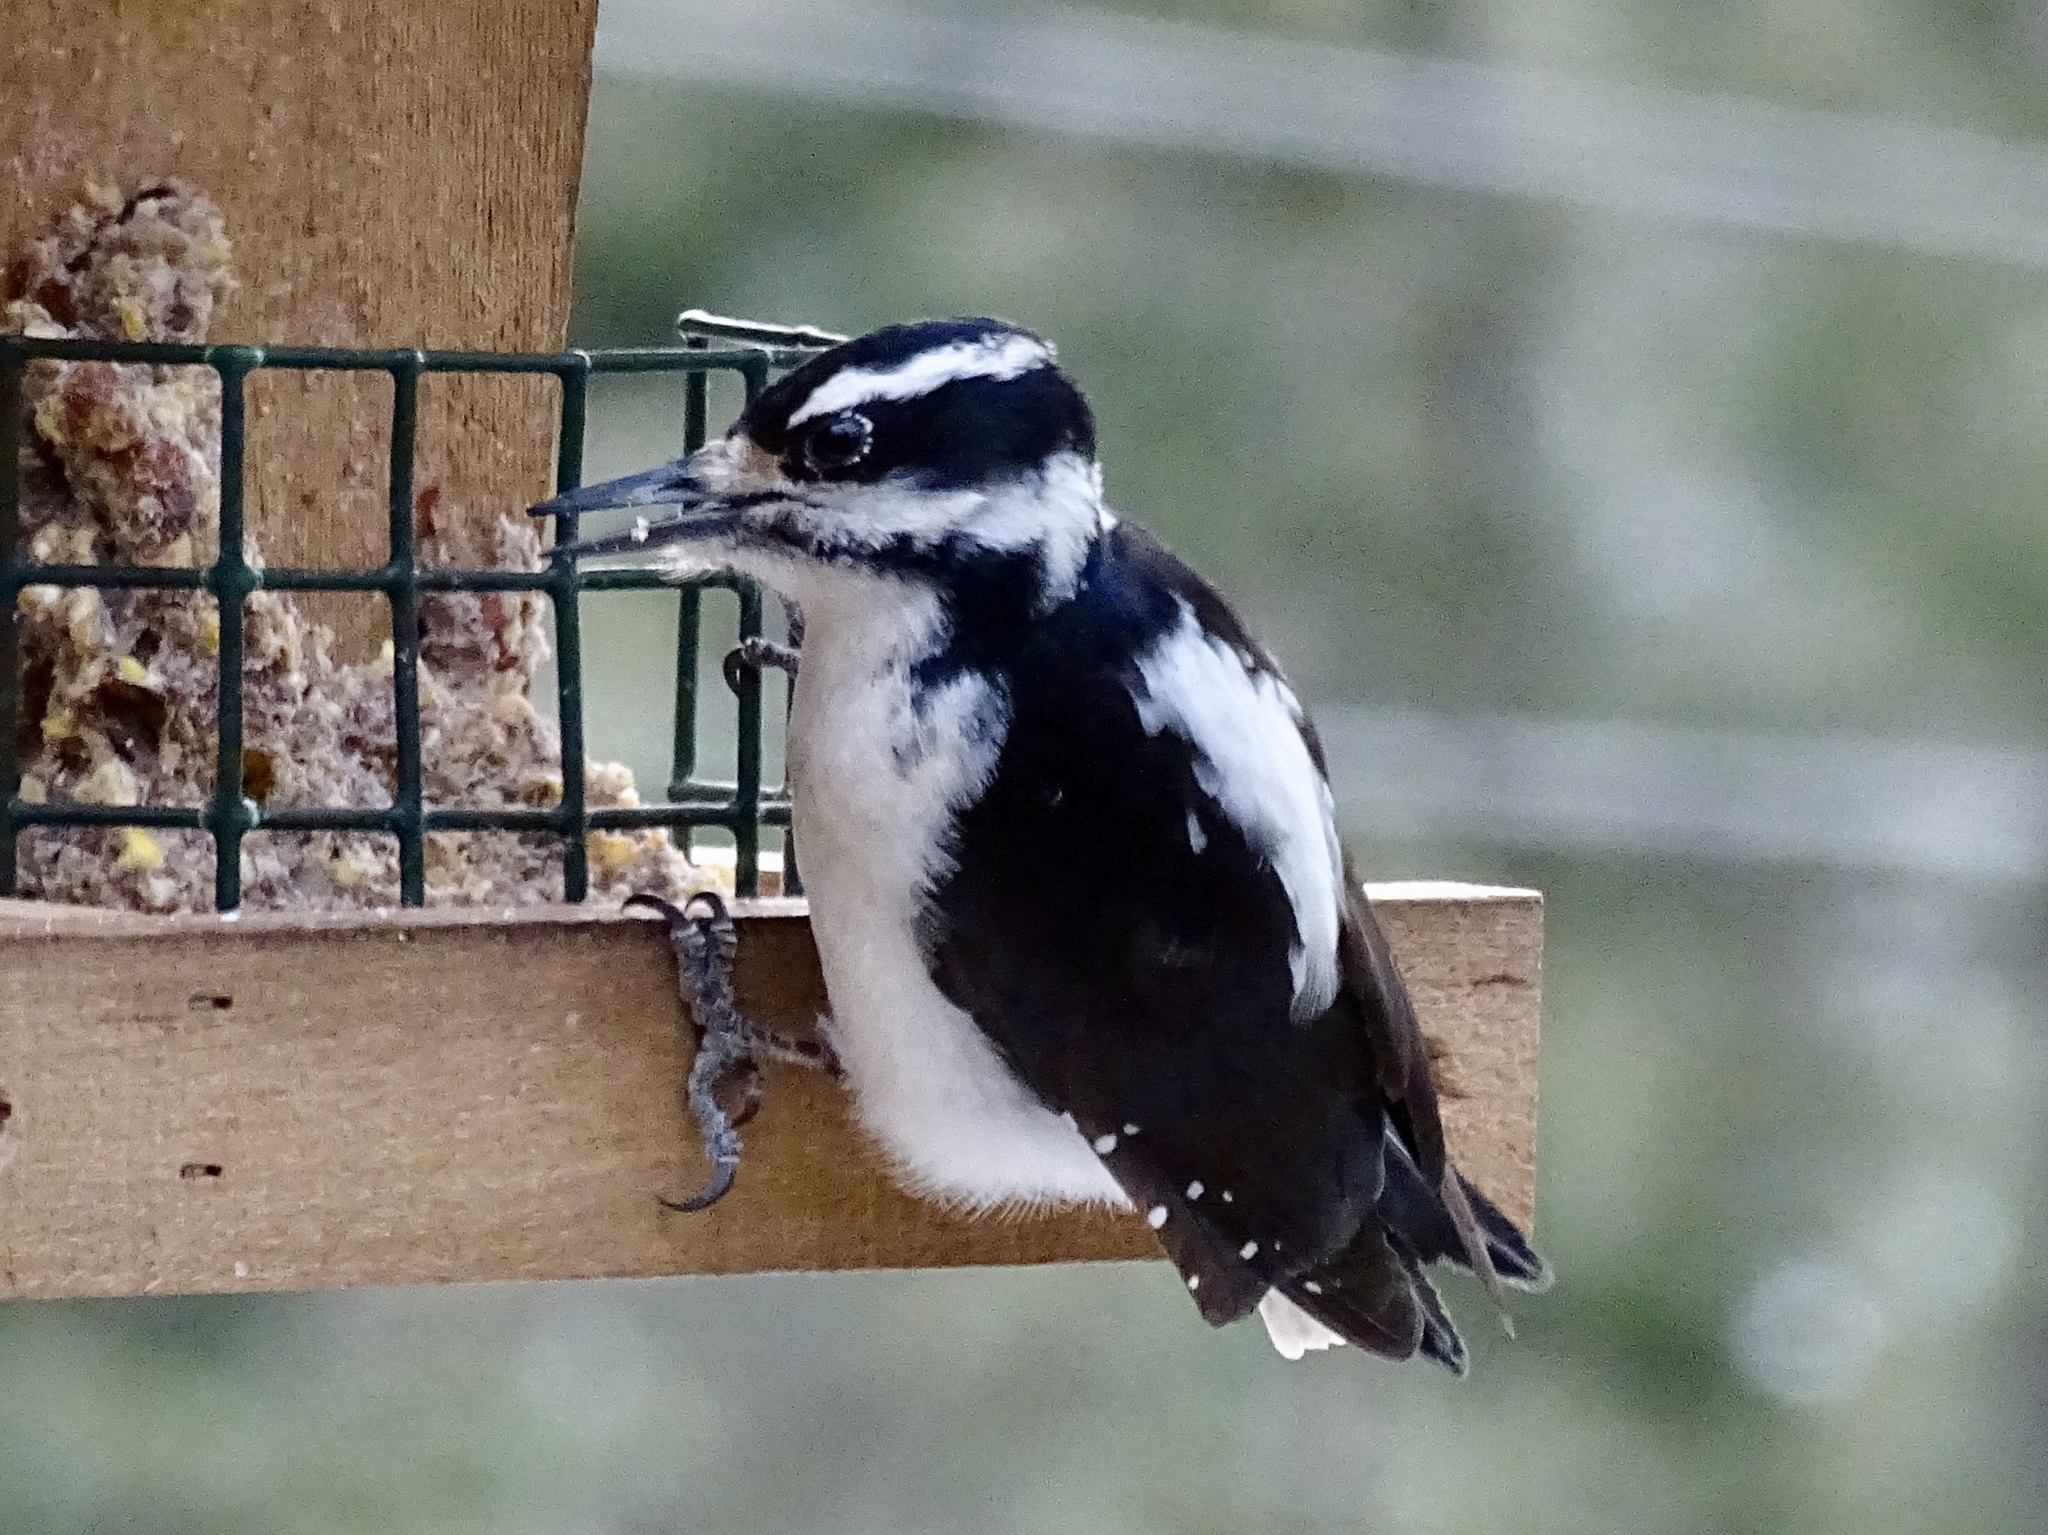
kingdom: Animalia
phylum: Chordata
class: Aves
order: Piciformes
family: Picidae
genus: Leuconotopicus
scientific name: Leuconotopicus villosus
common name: Hairy woodpecker
